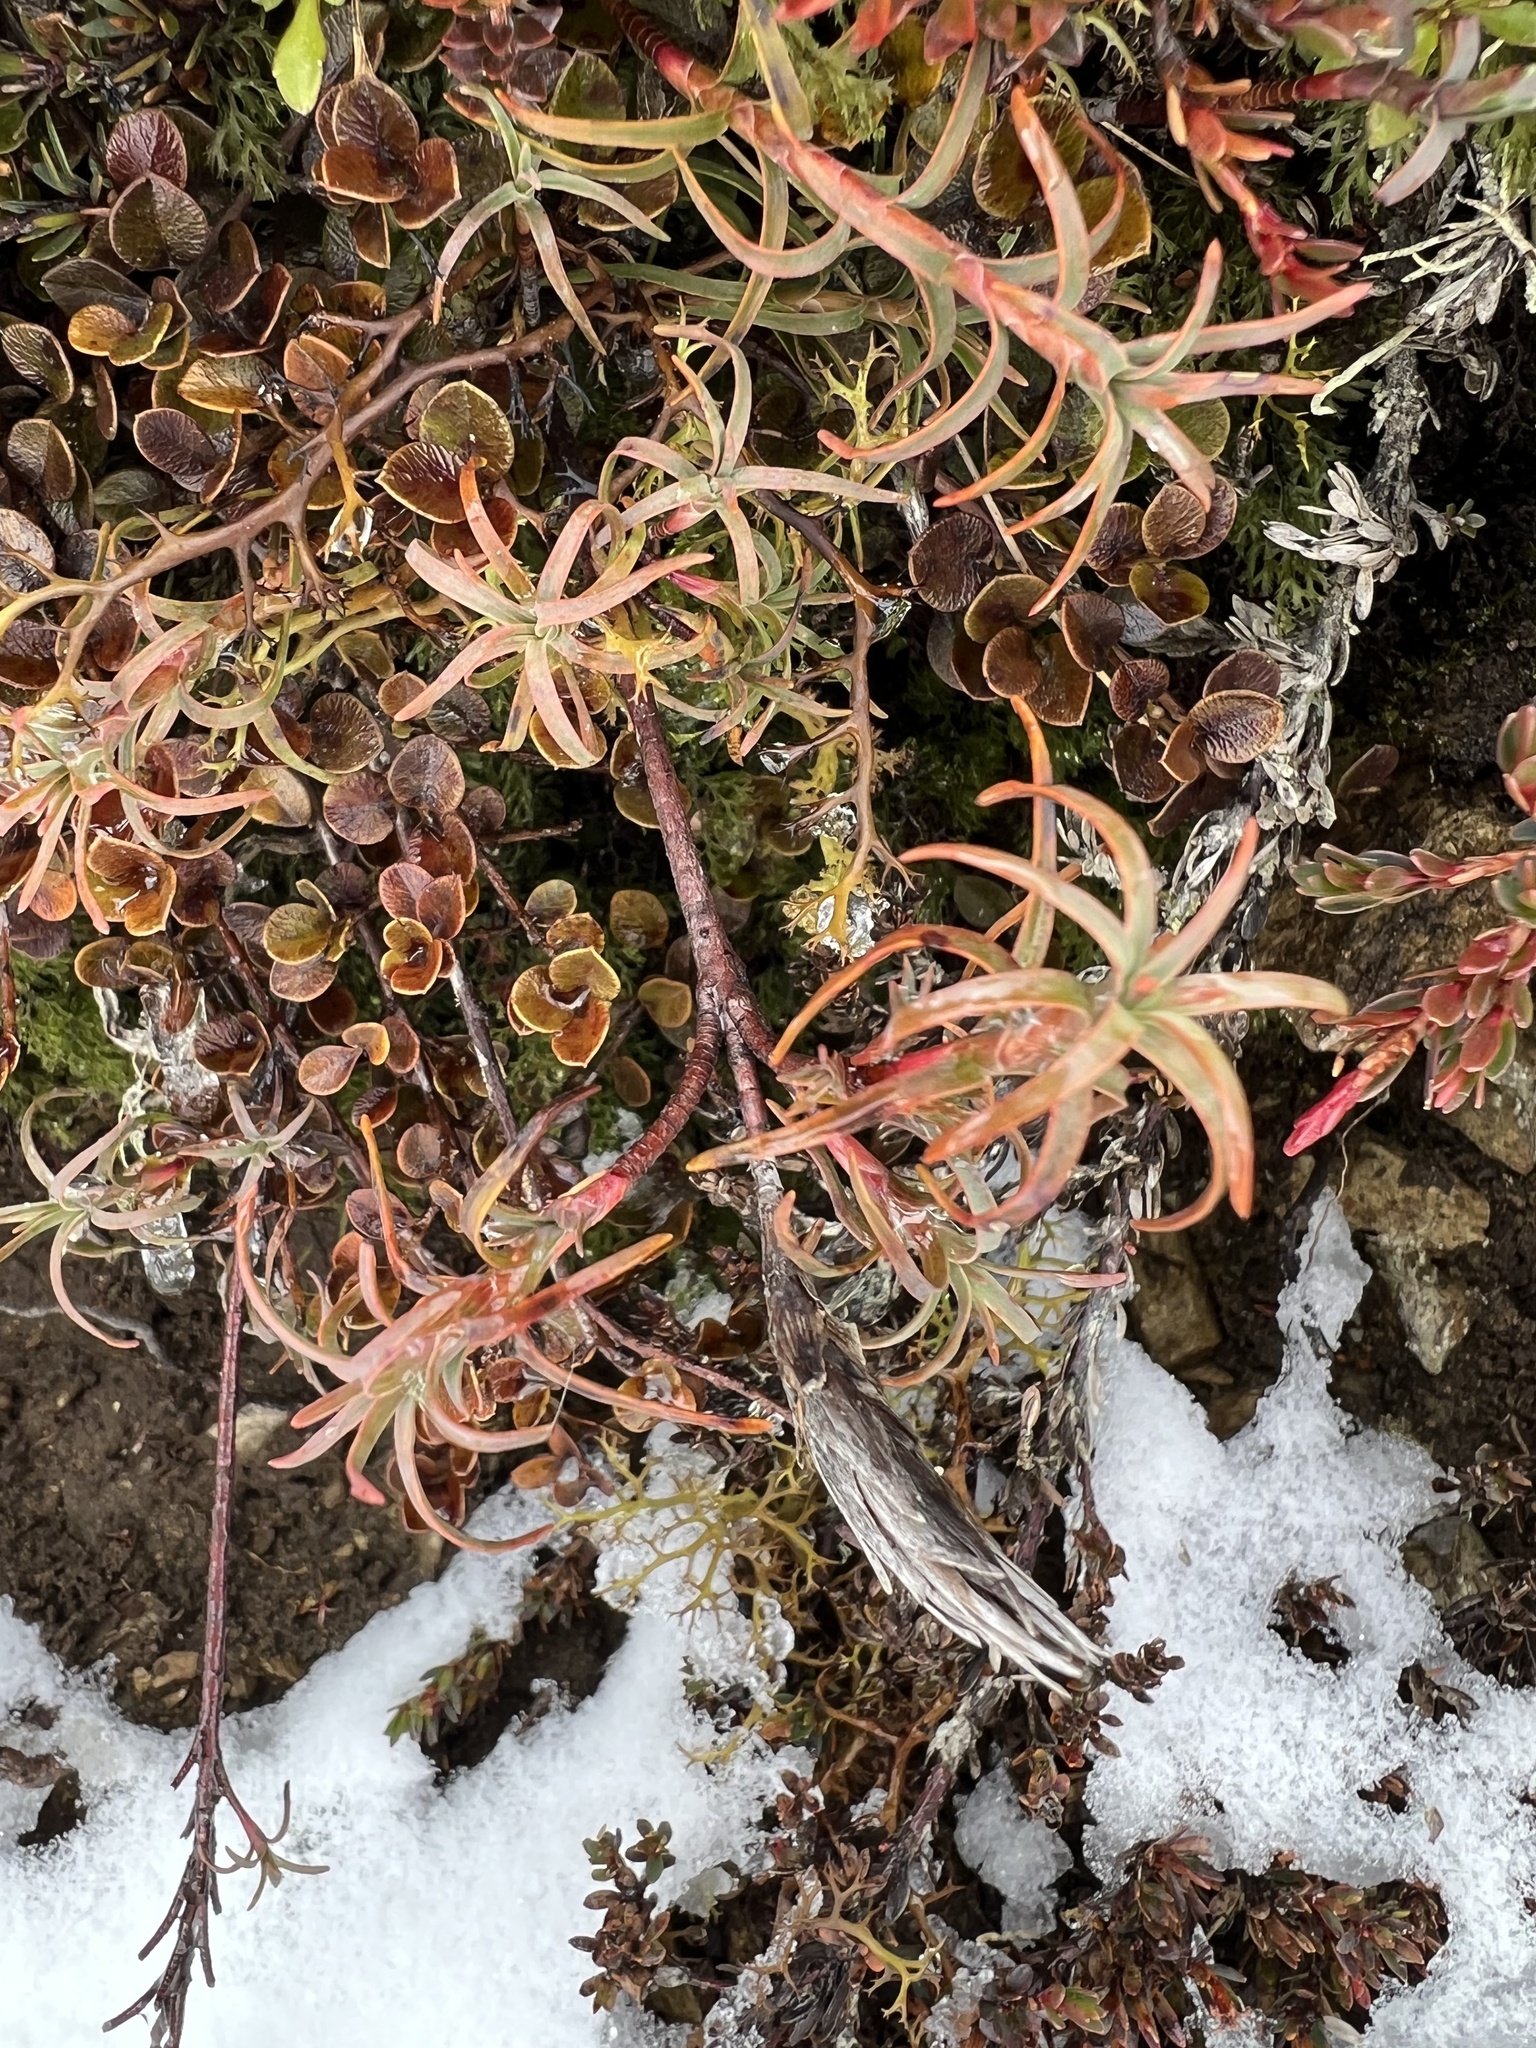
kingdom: Plantae
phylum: Tracheophyta
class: Magnoliopsida
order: Ericales
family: Ericaceae
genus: Dracophyllum
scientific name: Dracophyllum recurvum
